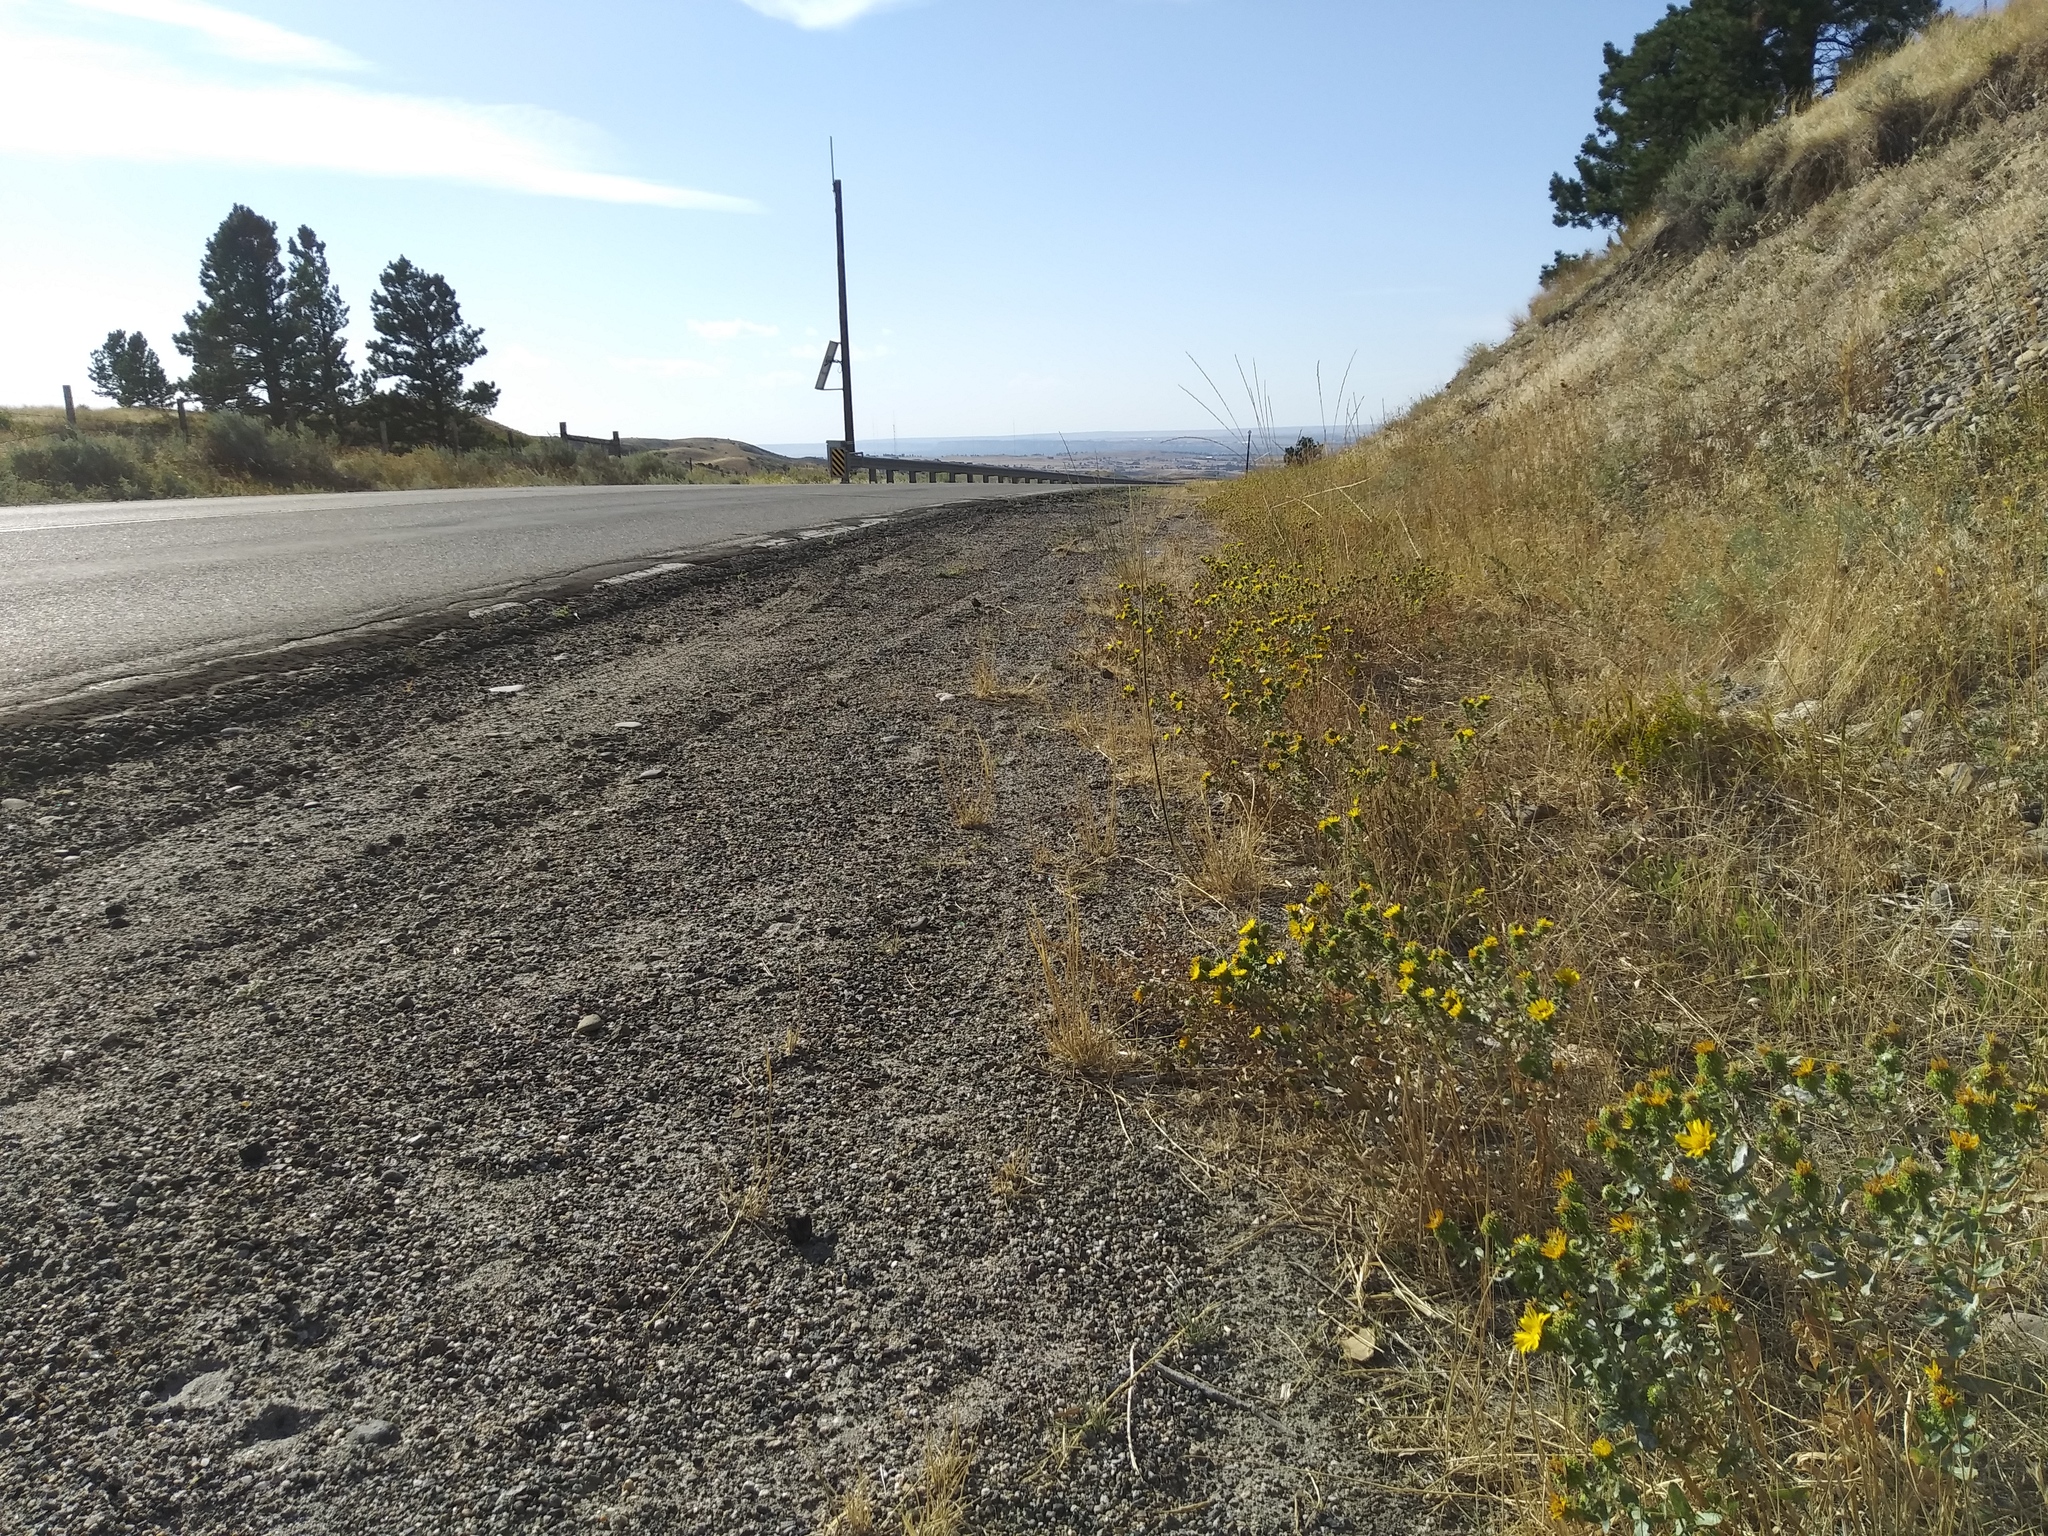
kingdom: Plantae
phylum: Tracheophyta
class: Magnoliopsida
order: Asterales
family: Asteraceae
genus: Grindelia
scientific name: Grindelia squarrosa
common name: Curly-cup gumweed
